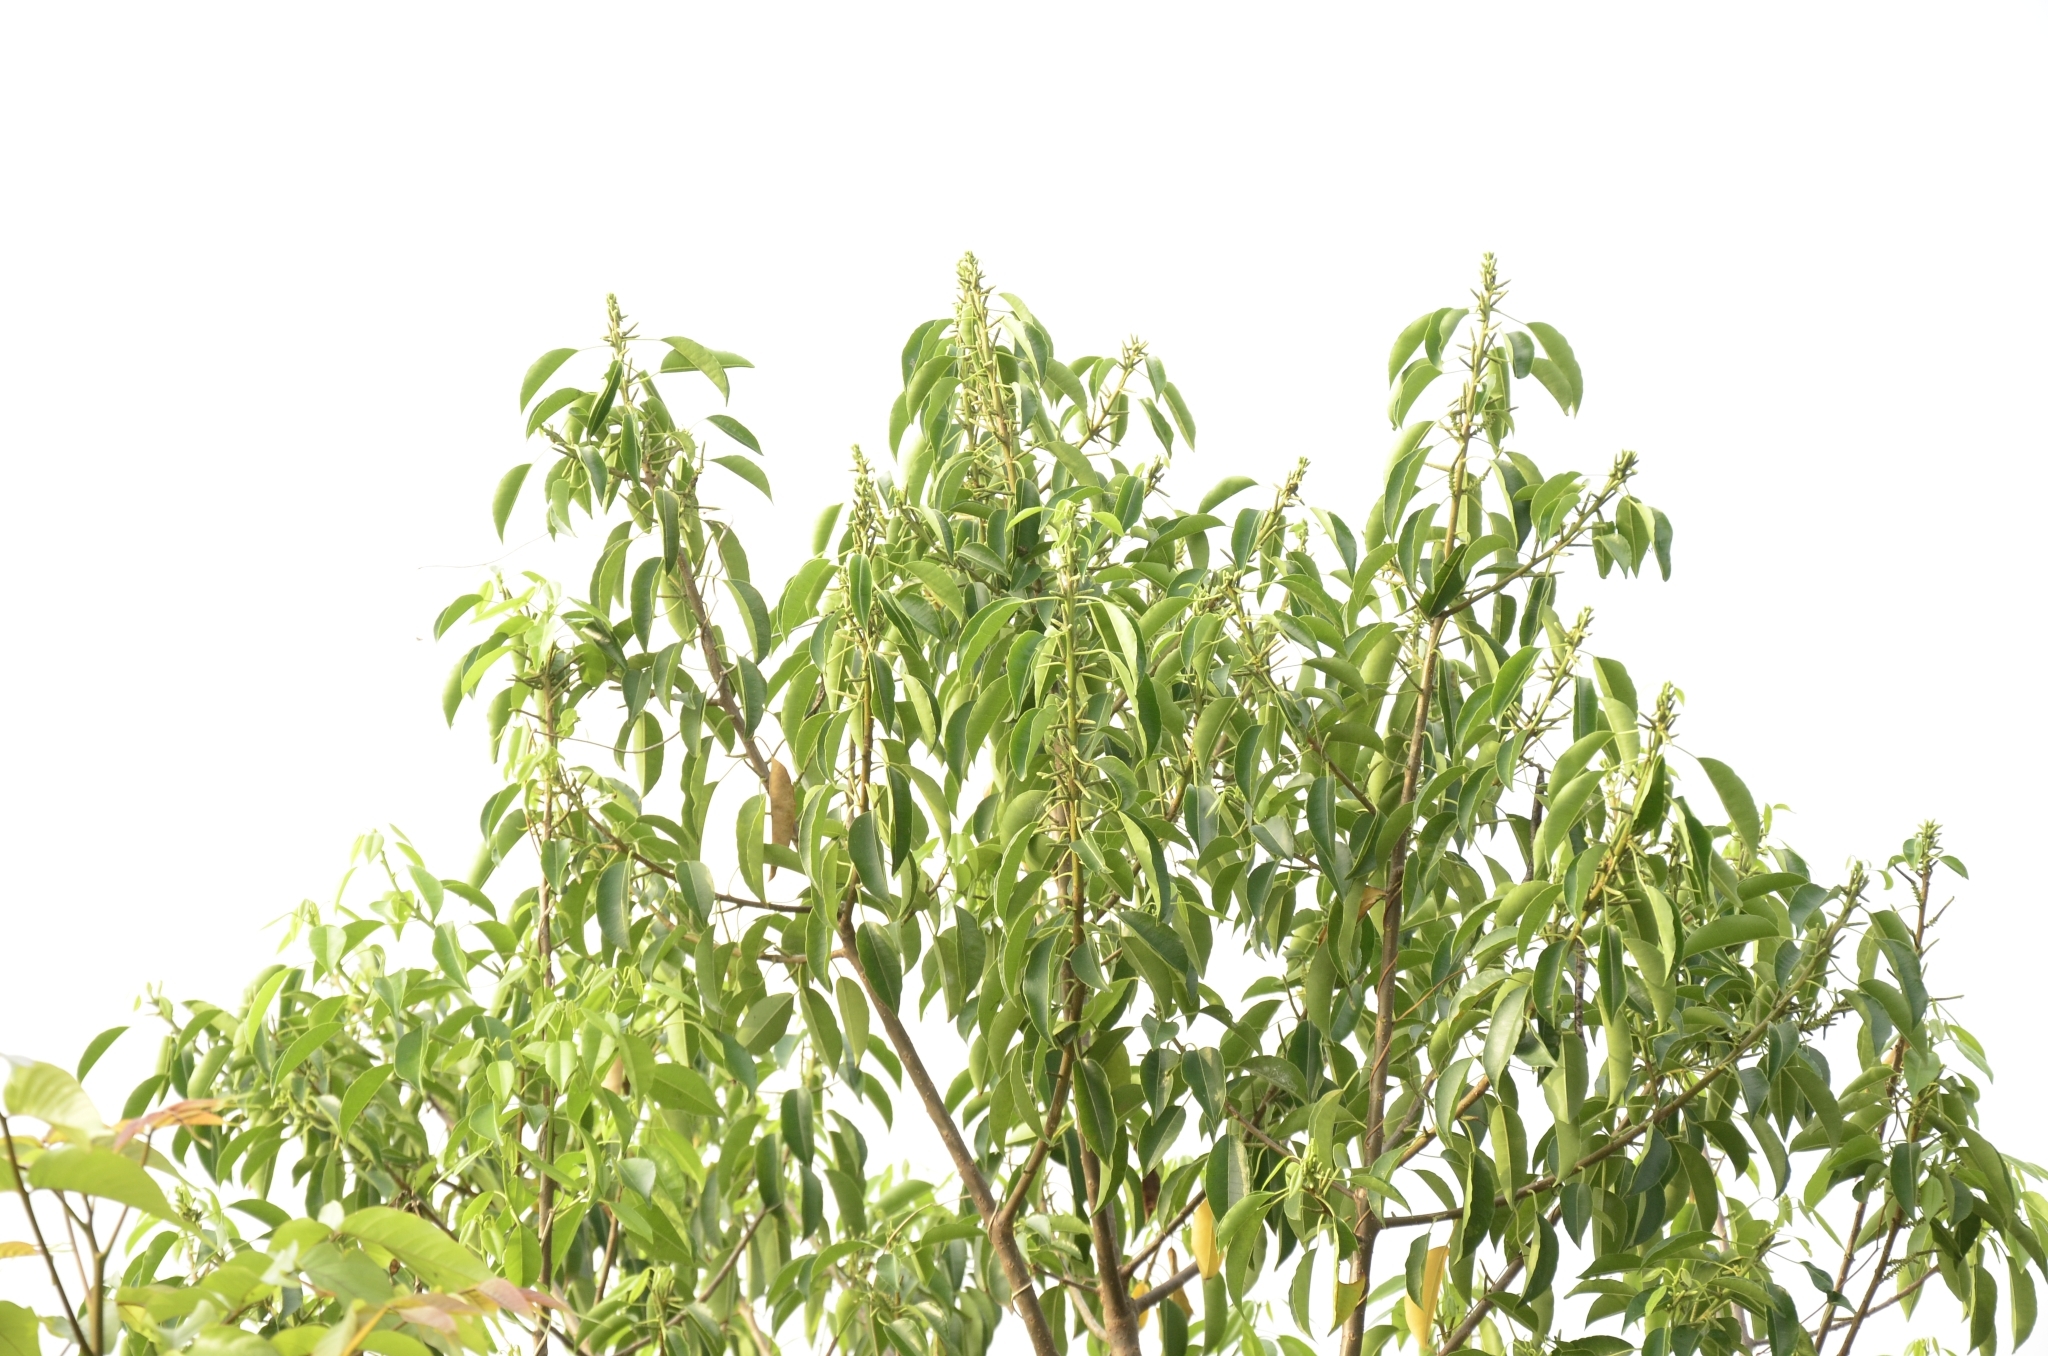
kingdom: Plantae
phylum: Tracheophyta
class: Magnoliopsida
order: Malpighiales
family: Euphorbiaceae
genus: Excoecaria
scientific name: Excoecaria agallocha
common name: River poisontree
